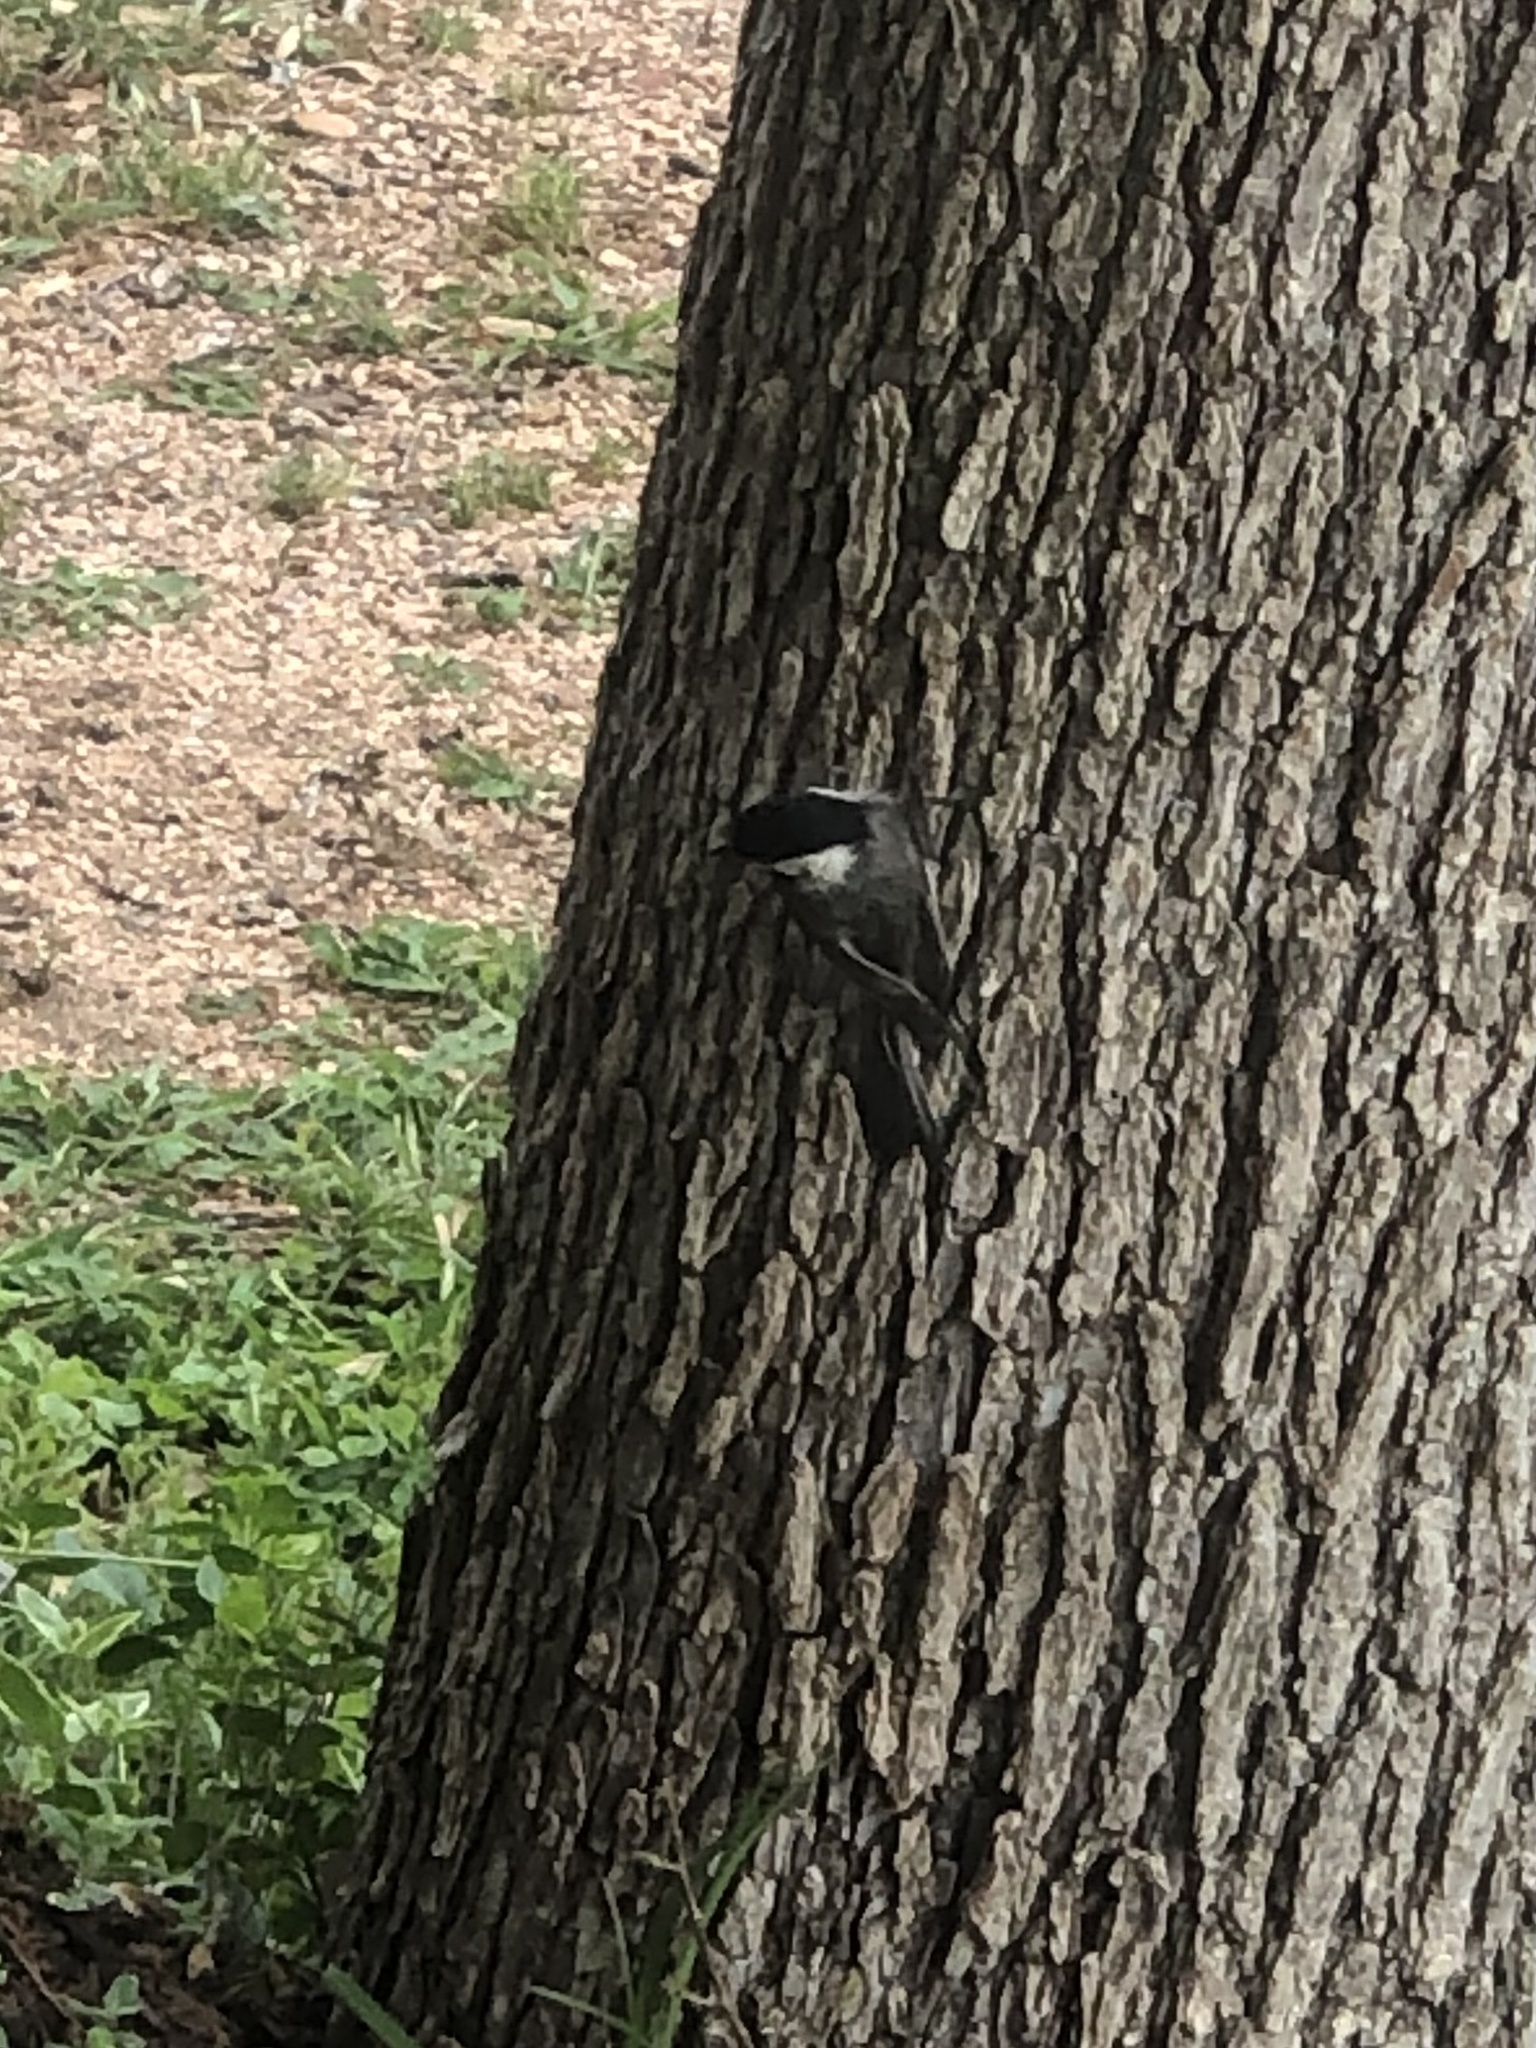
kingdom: Animalia
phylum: Chordata
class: Aves
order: Passeriformes
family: Paridae
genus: Poecile
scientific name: Poecile carolinensis
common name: Carolina chickadee
